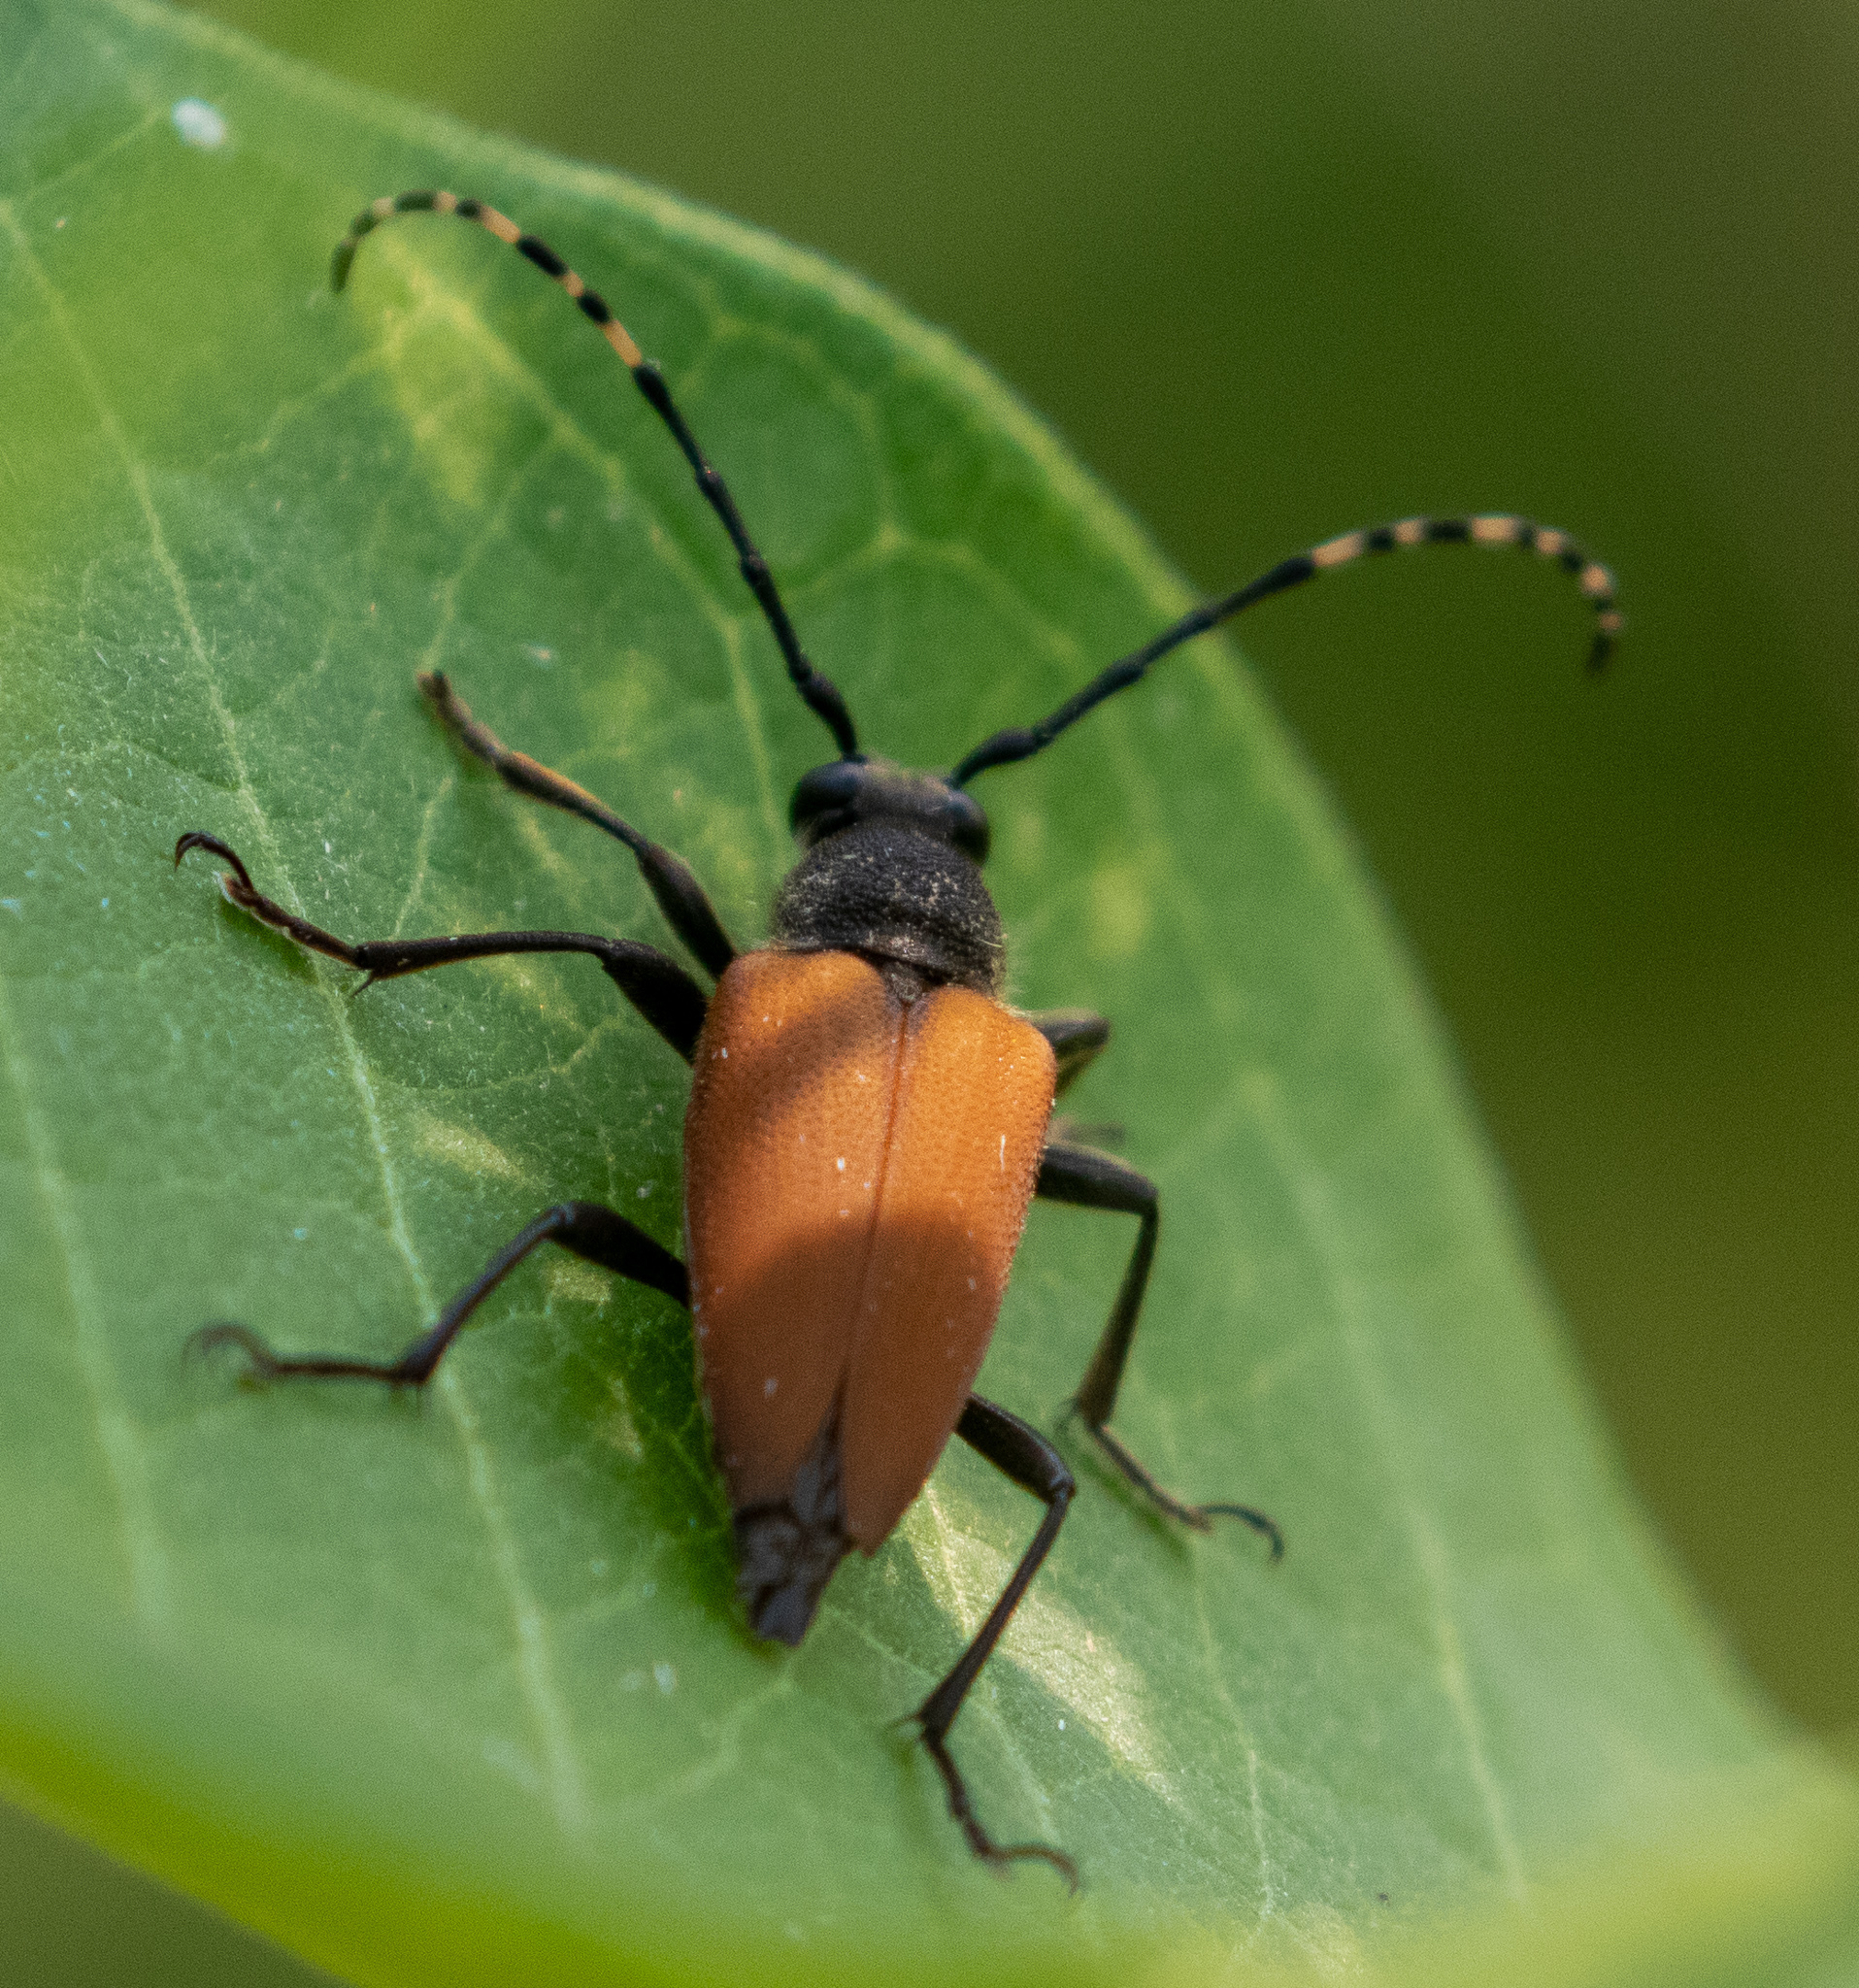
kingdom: Animalia
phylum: Arthropoda
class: Insecta
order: Coleoptera
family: Cerambycidae
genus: Brachyleptura
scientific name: Brachyleptura rubrica
